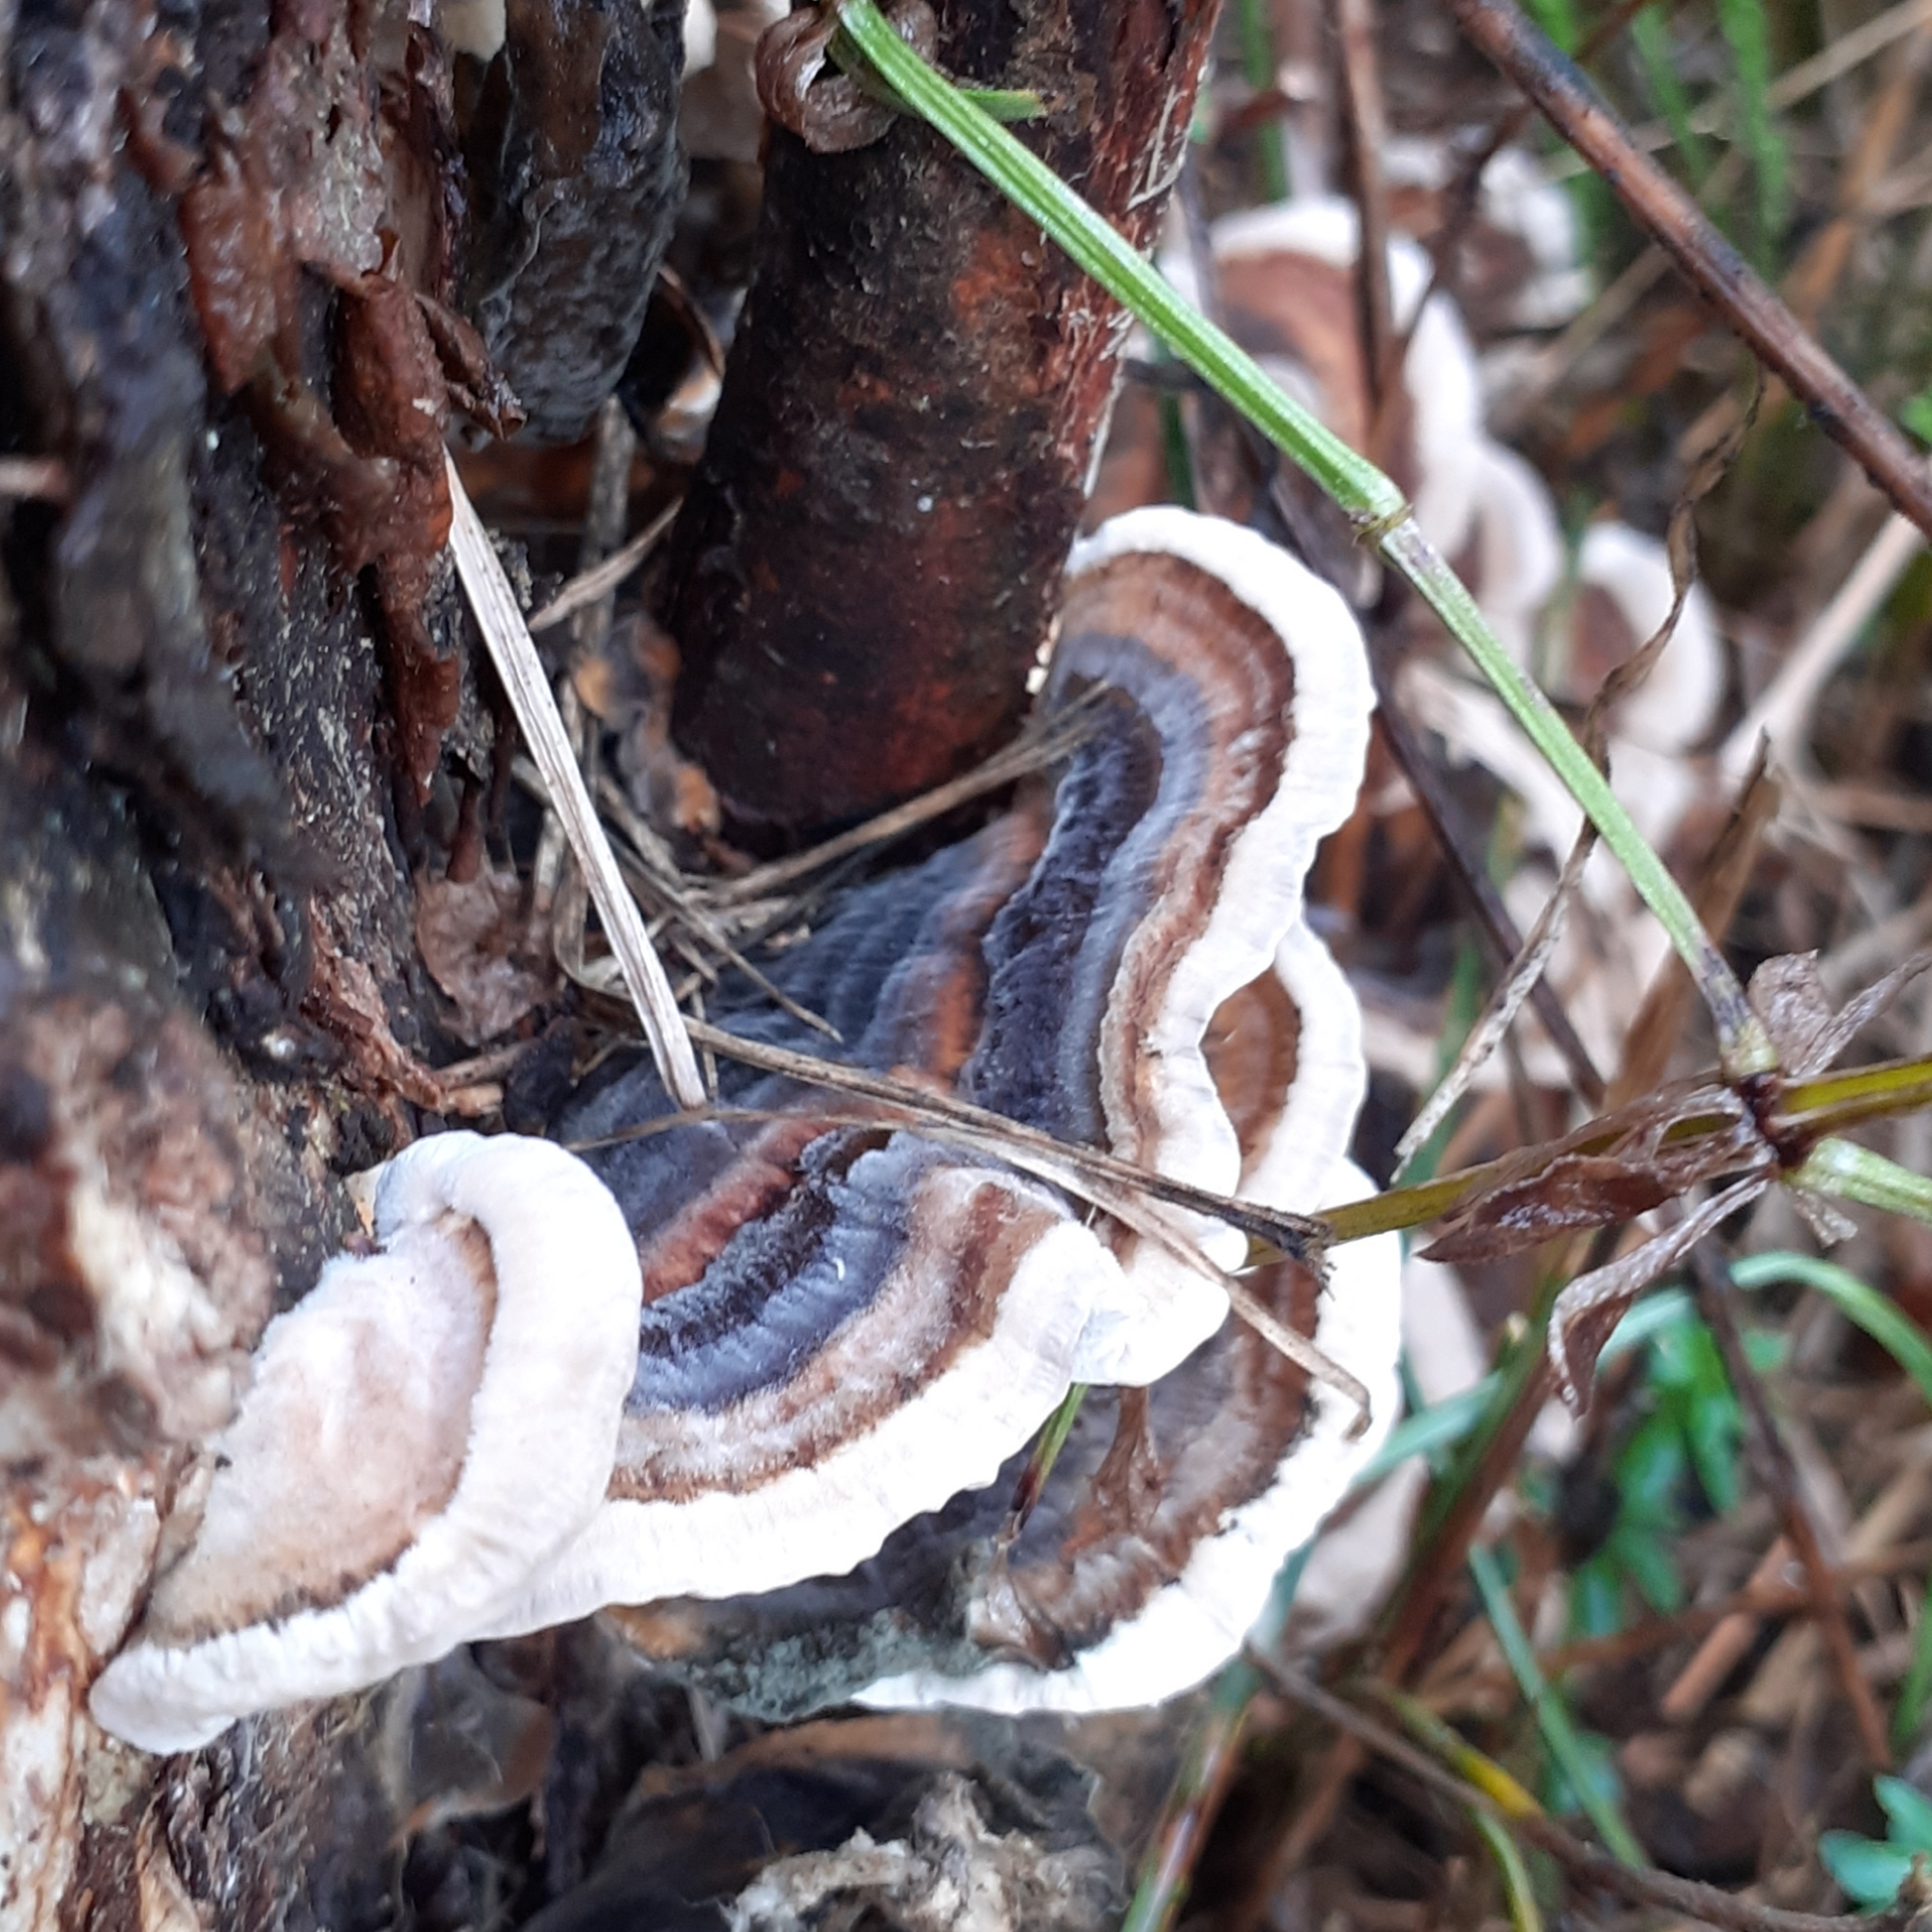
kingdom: Fungi
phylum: Basidiomycota
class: Agaricomycetes
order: Polyporales
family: Polyporaceae
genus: Trametes
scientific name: Trametes versicolor
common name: Turkeytail
